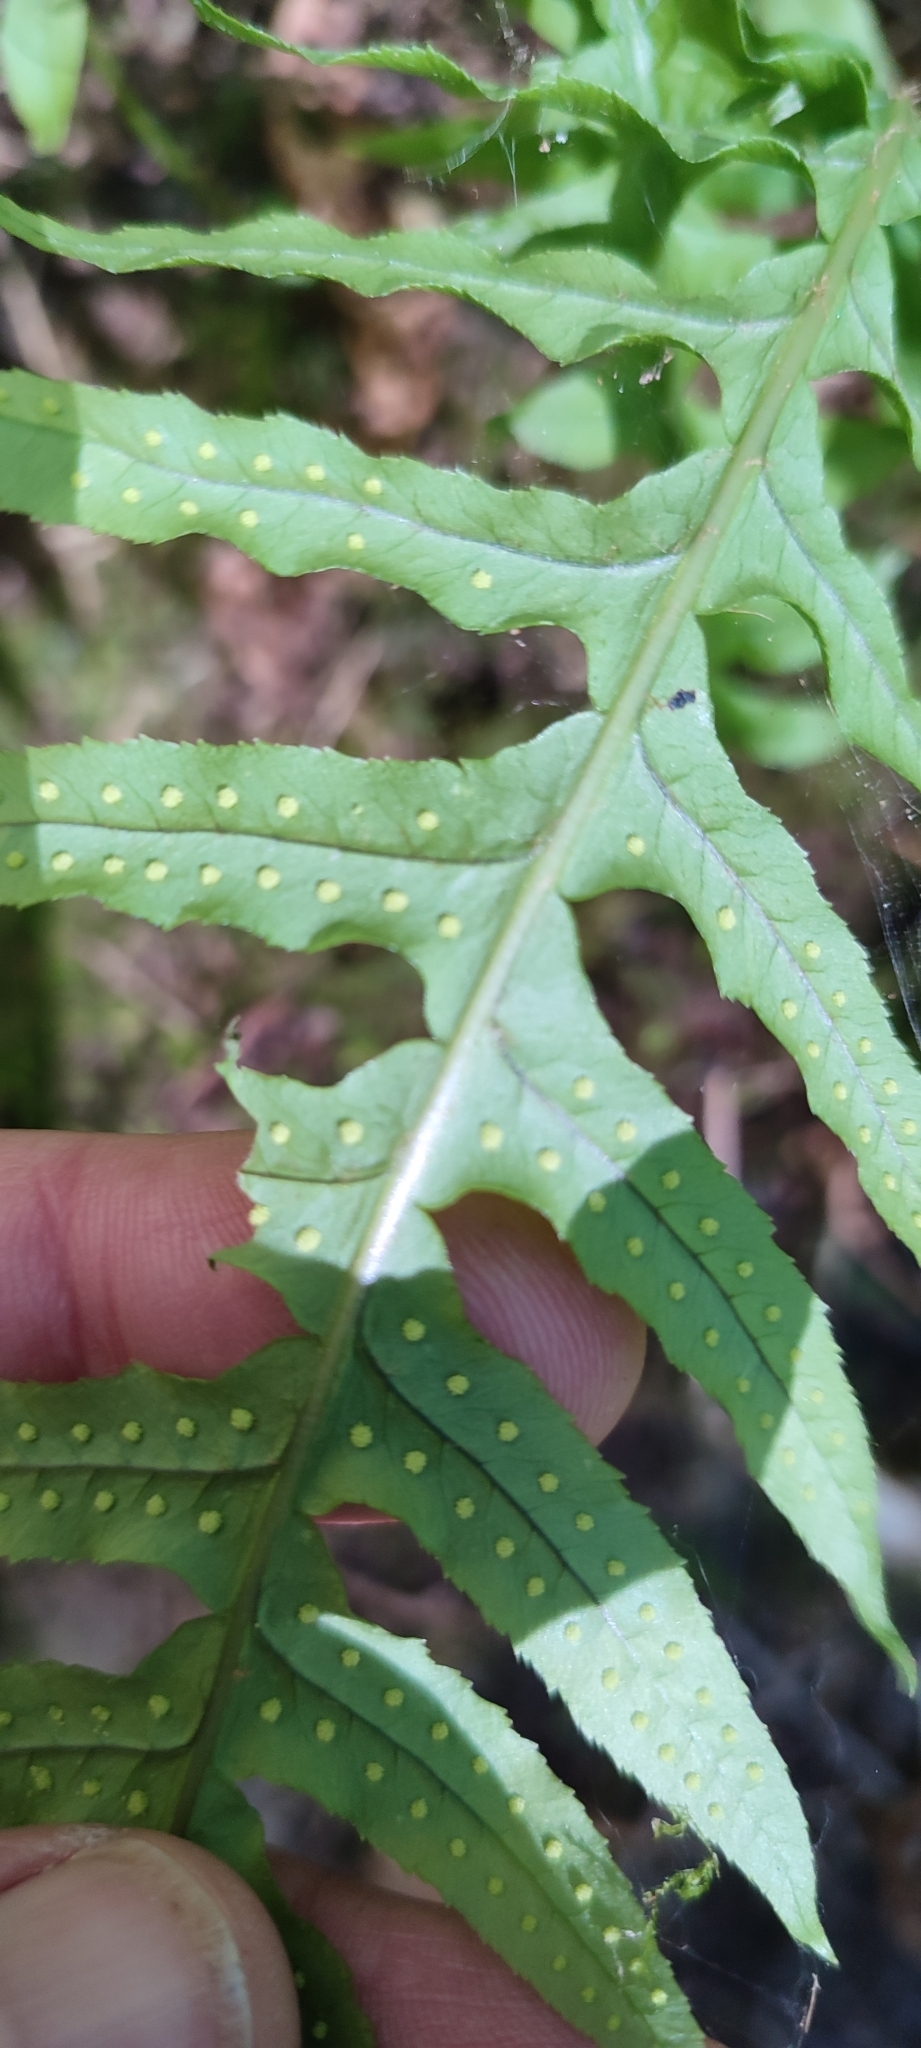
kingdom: Plantae
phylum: Tracheophyta
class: Polypodiopsida
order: Polypodiales
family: Polypodiaceae
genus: Polypodium
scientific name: Polypodium glycyrrhiza
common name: Licorice fern
